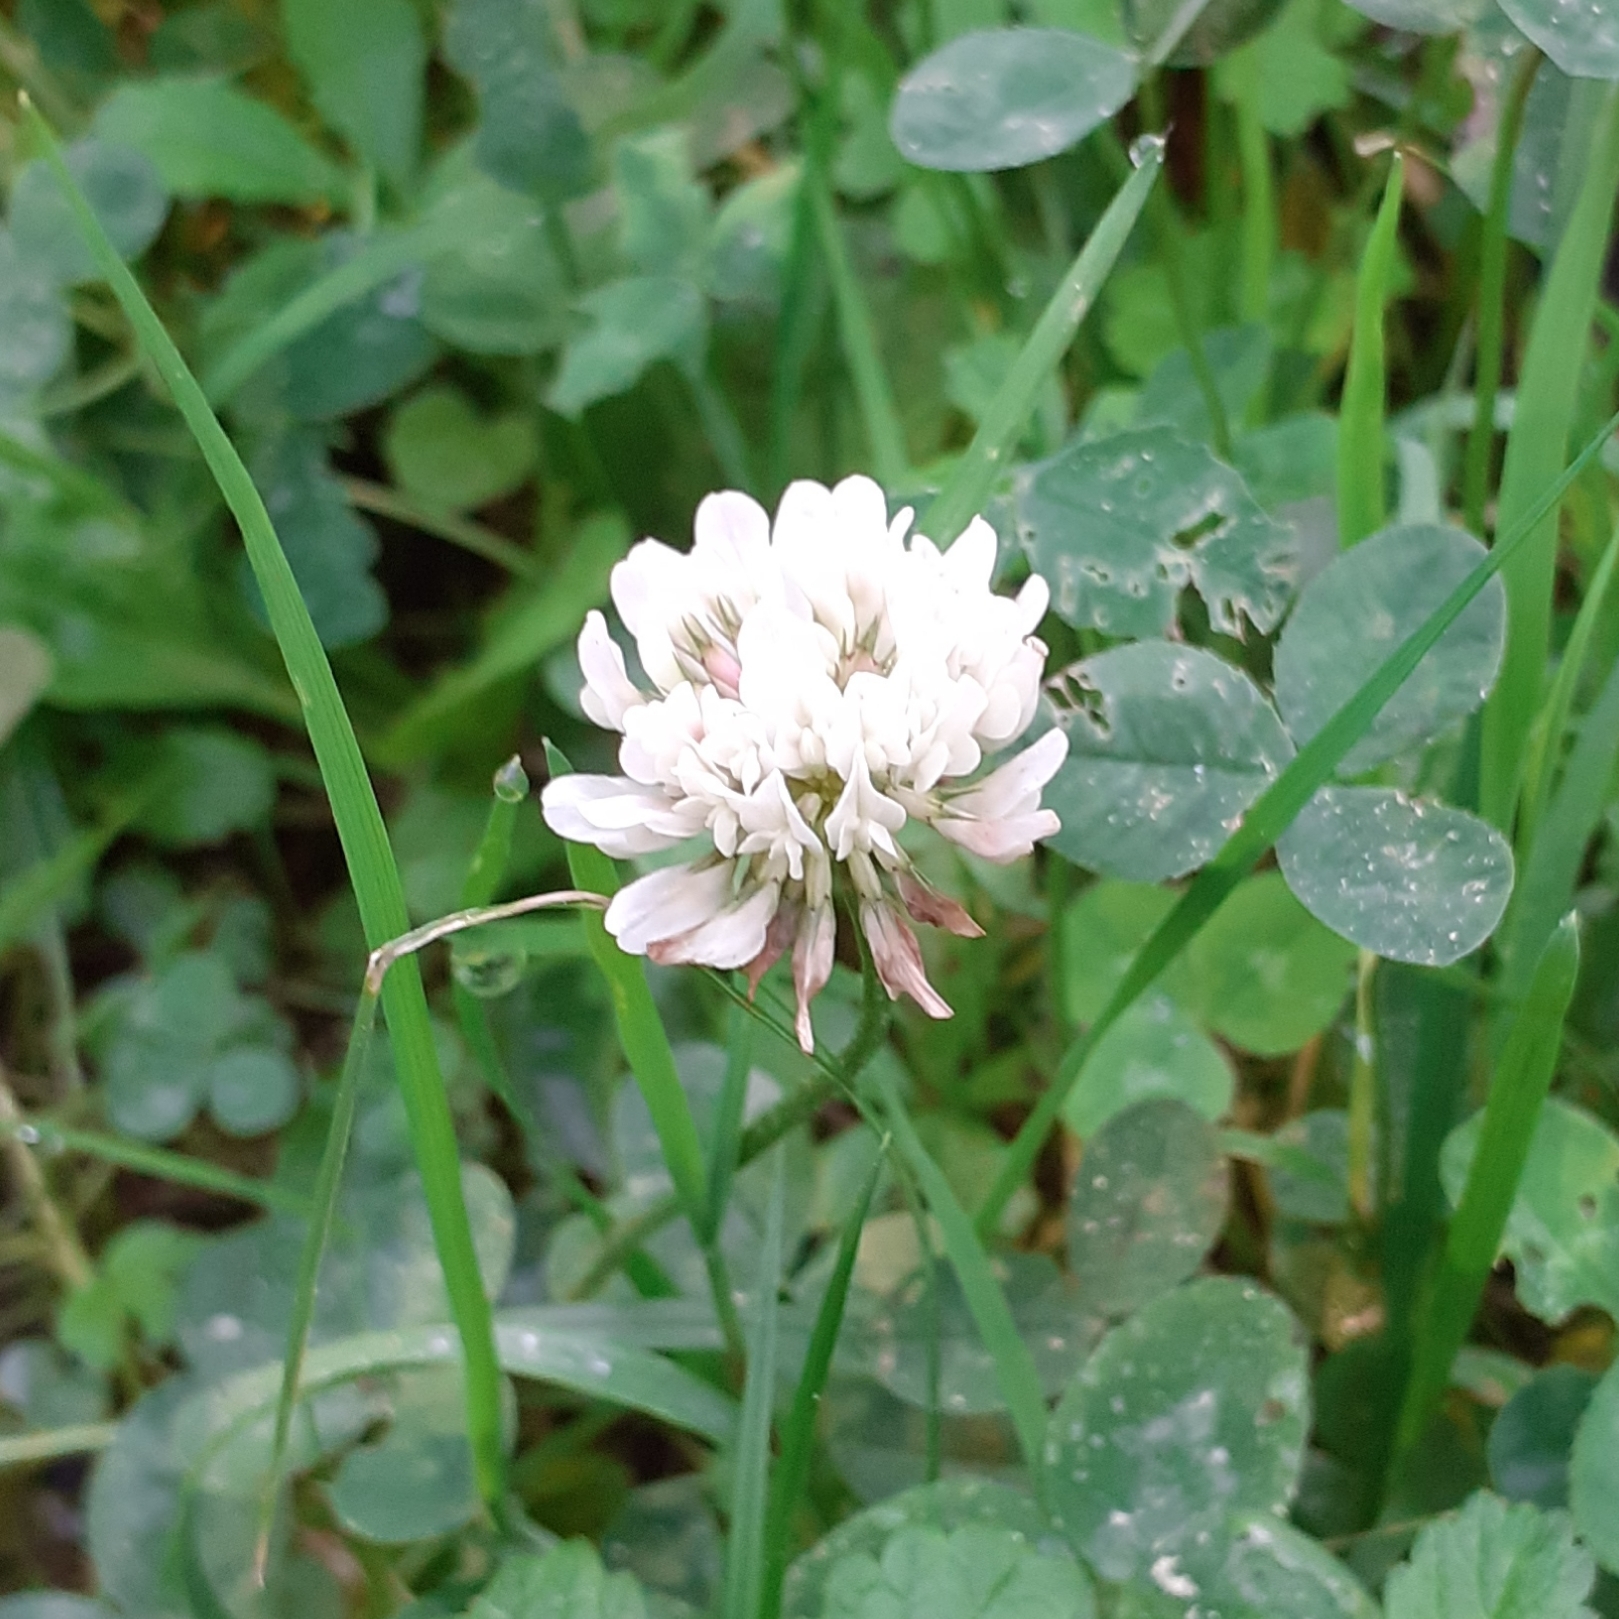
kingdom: Plantae
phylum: Tracheophyta
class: Magnoliopsida
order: Fabales
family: Fabaceae
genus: Trifolium
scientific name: Trifolium repens
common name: White clover
